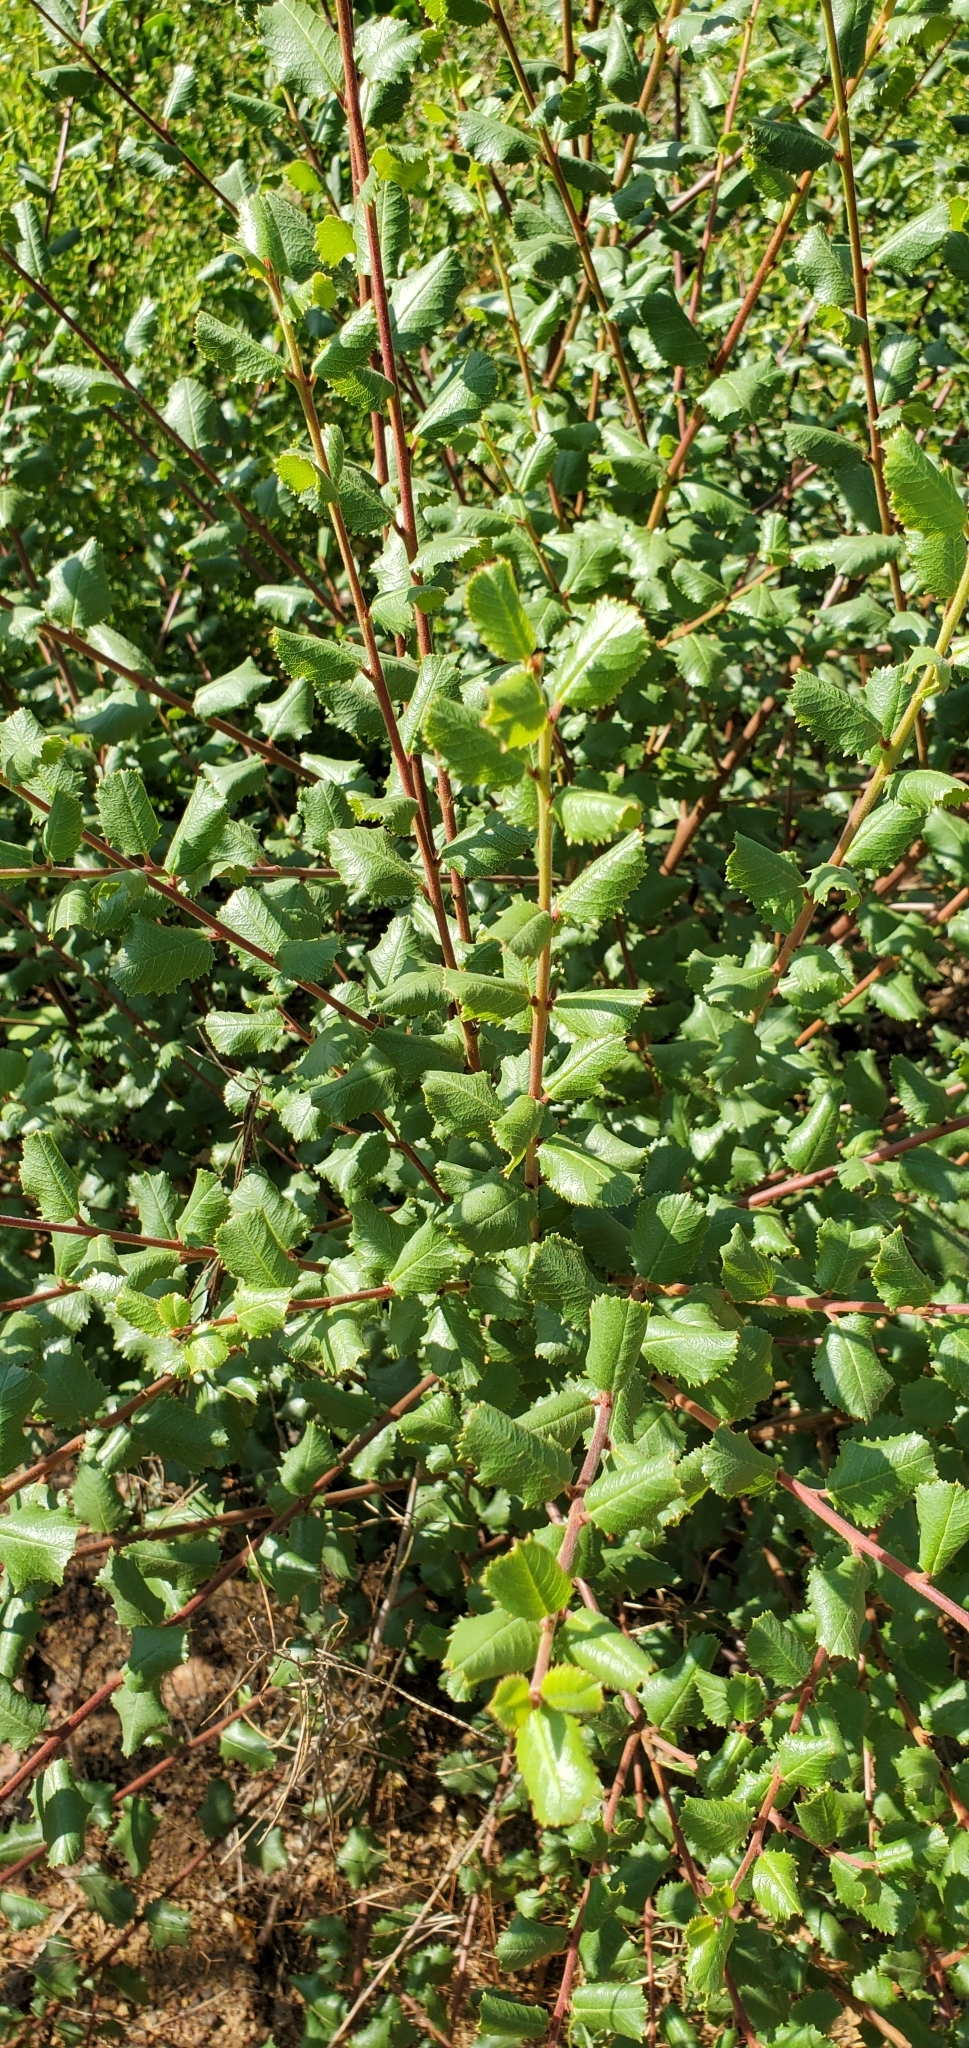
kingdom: Plantae
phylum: Tracheophyta
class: Magnoliopsida
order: Rosales
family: Rhamnaceae
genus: Endotropis
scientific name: Endotropis crocea
